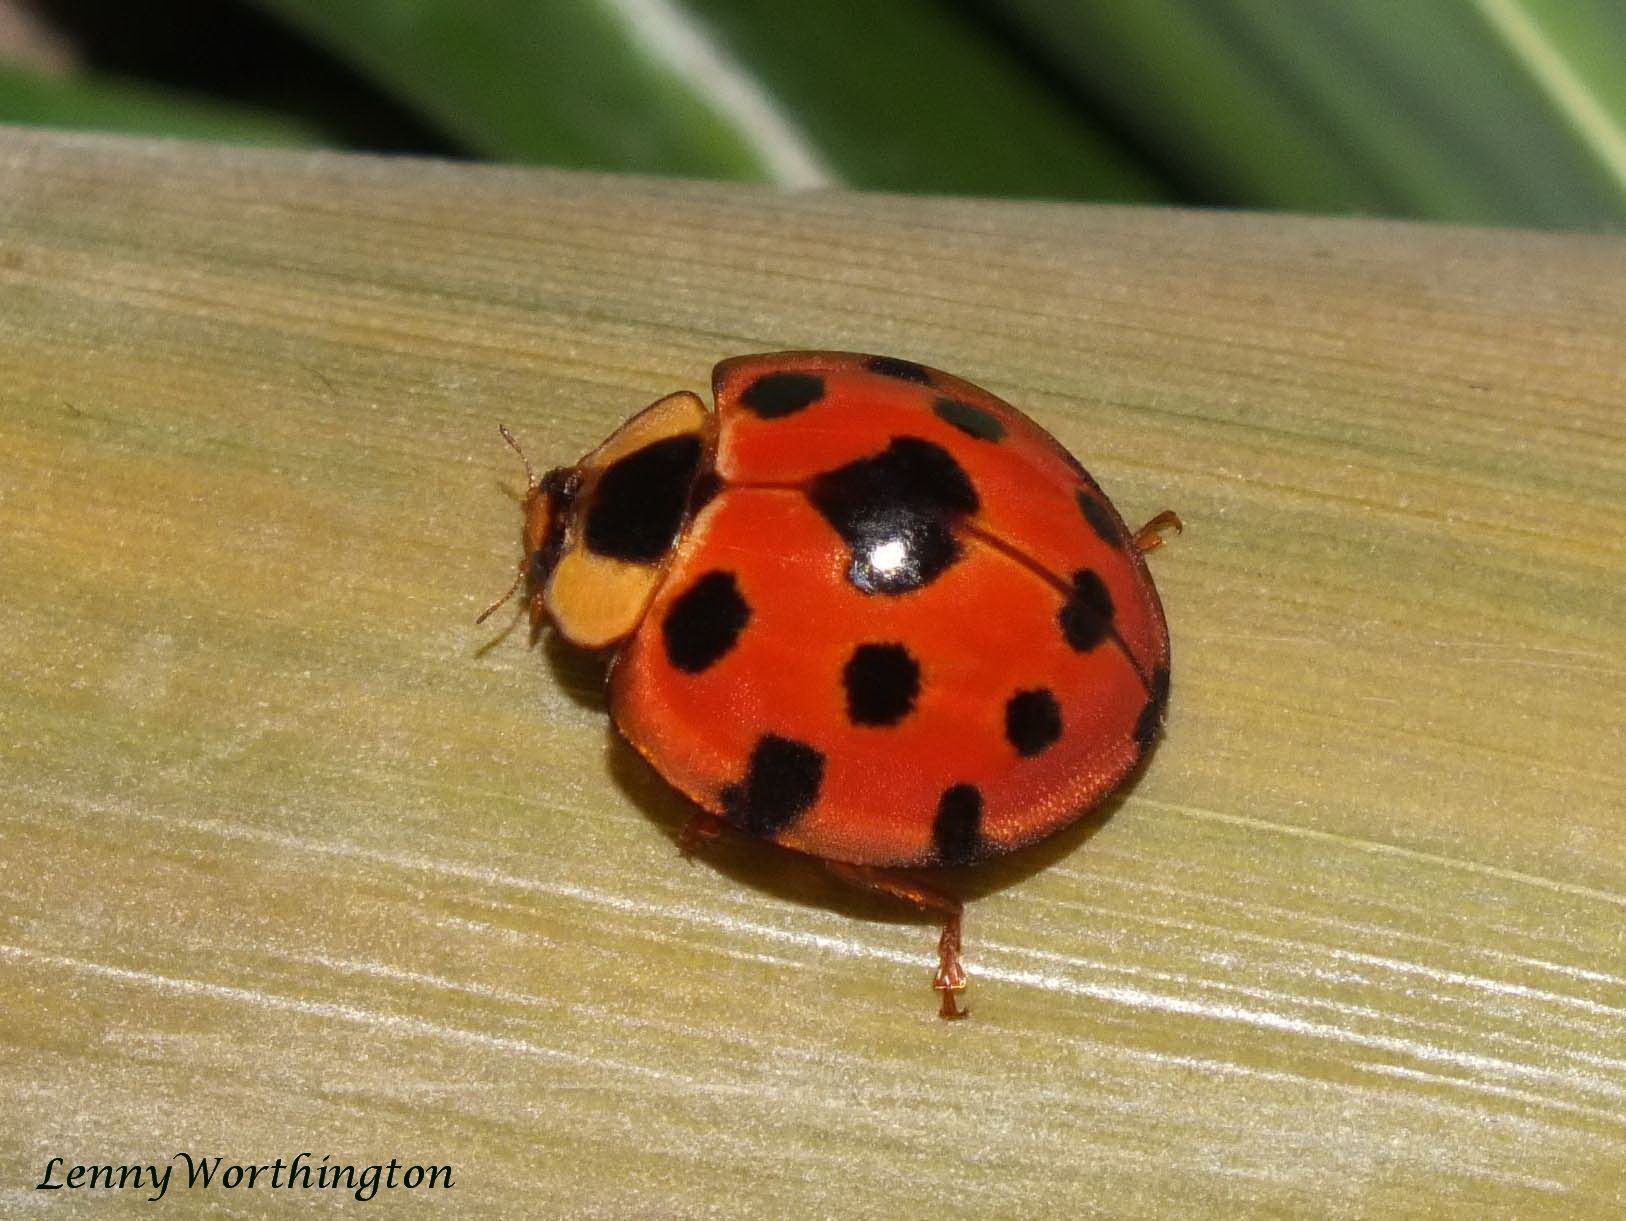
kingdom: Animalia
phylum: Arthropoda
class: Insecta
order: Coleoptera
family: Coccinellidae
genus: Synonycha
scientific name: Synonycha grandis
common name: Lady beetle
